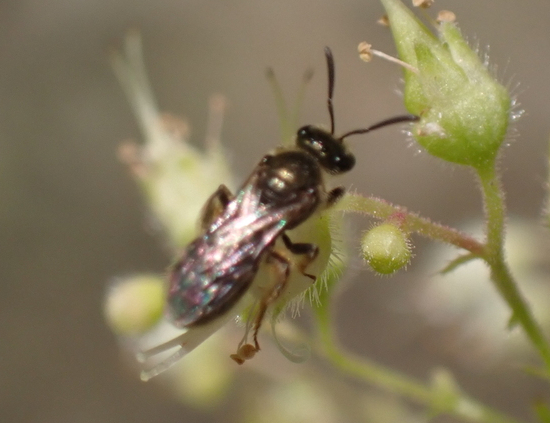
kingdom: Animalia
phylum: Arthropoda
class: Insecta
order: Hymenoptera
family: Halictidae
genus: Dialictus
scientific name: Dialictus
